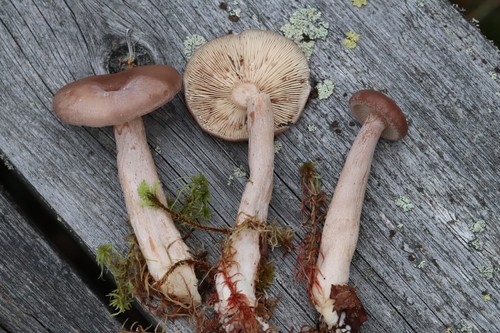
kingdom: Fungi
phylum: Basidiomycota
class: Agaricomycetes
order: Russulales
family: Russulaceae
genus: Lactarius
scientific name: Lactarius vietus
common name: Grey milk-cap
